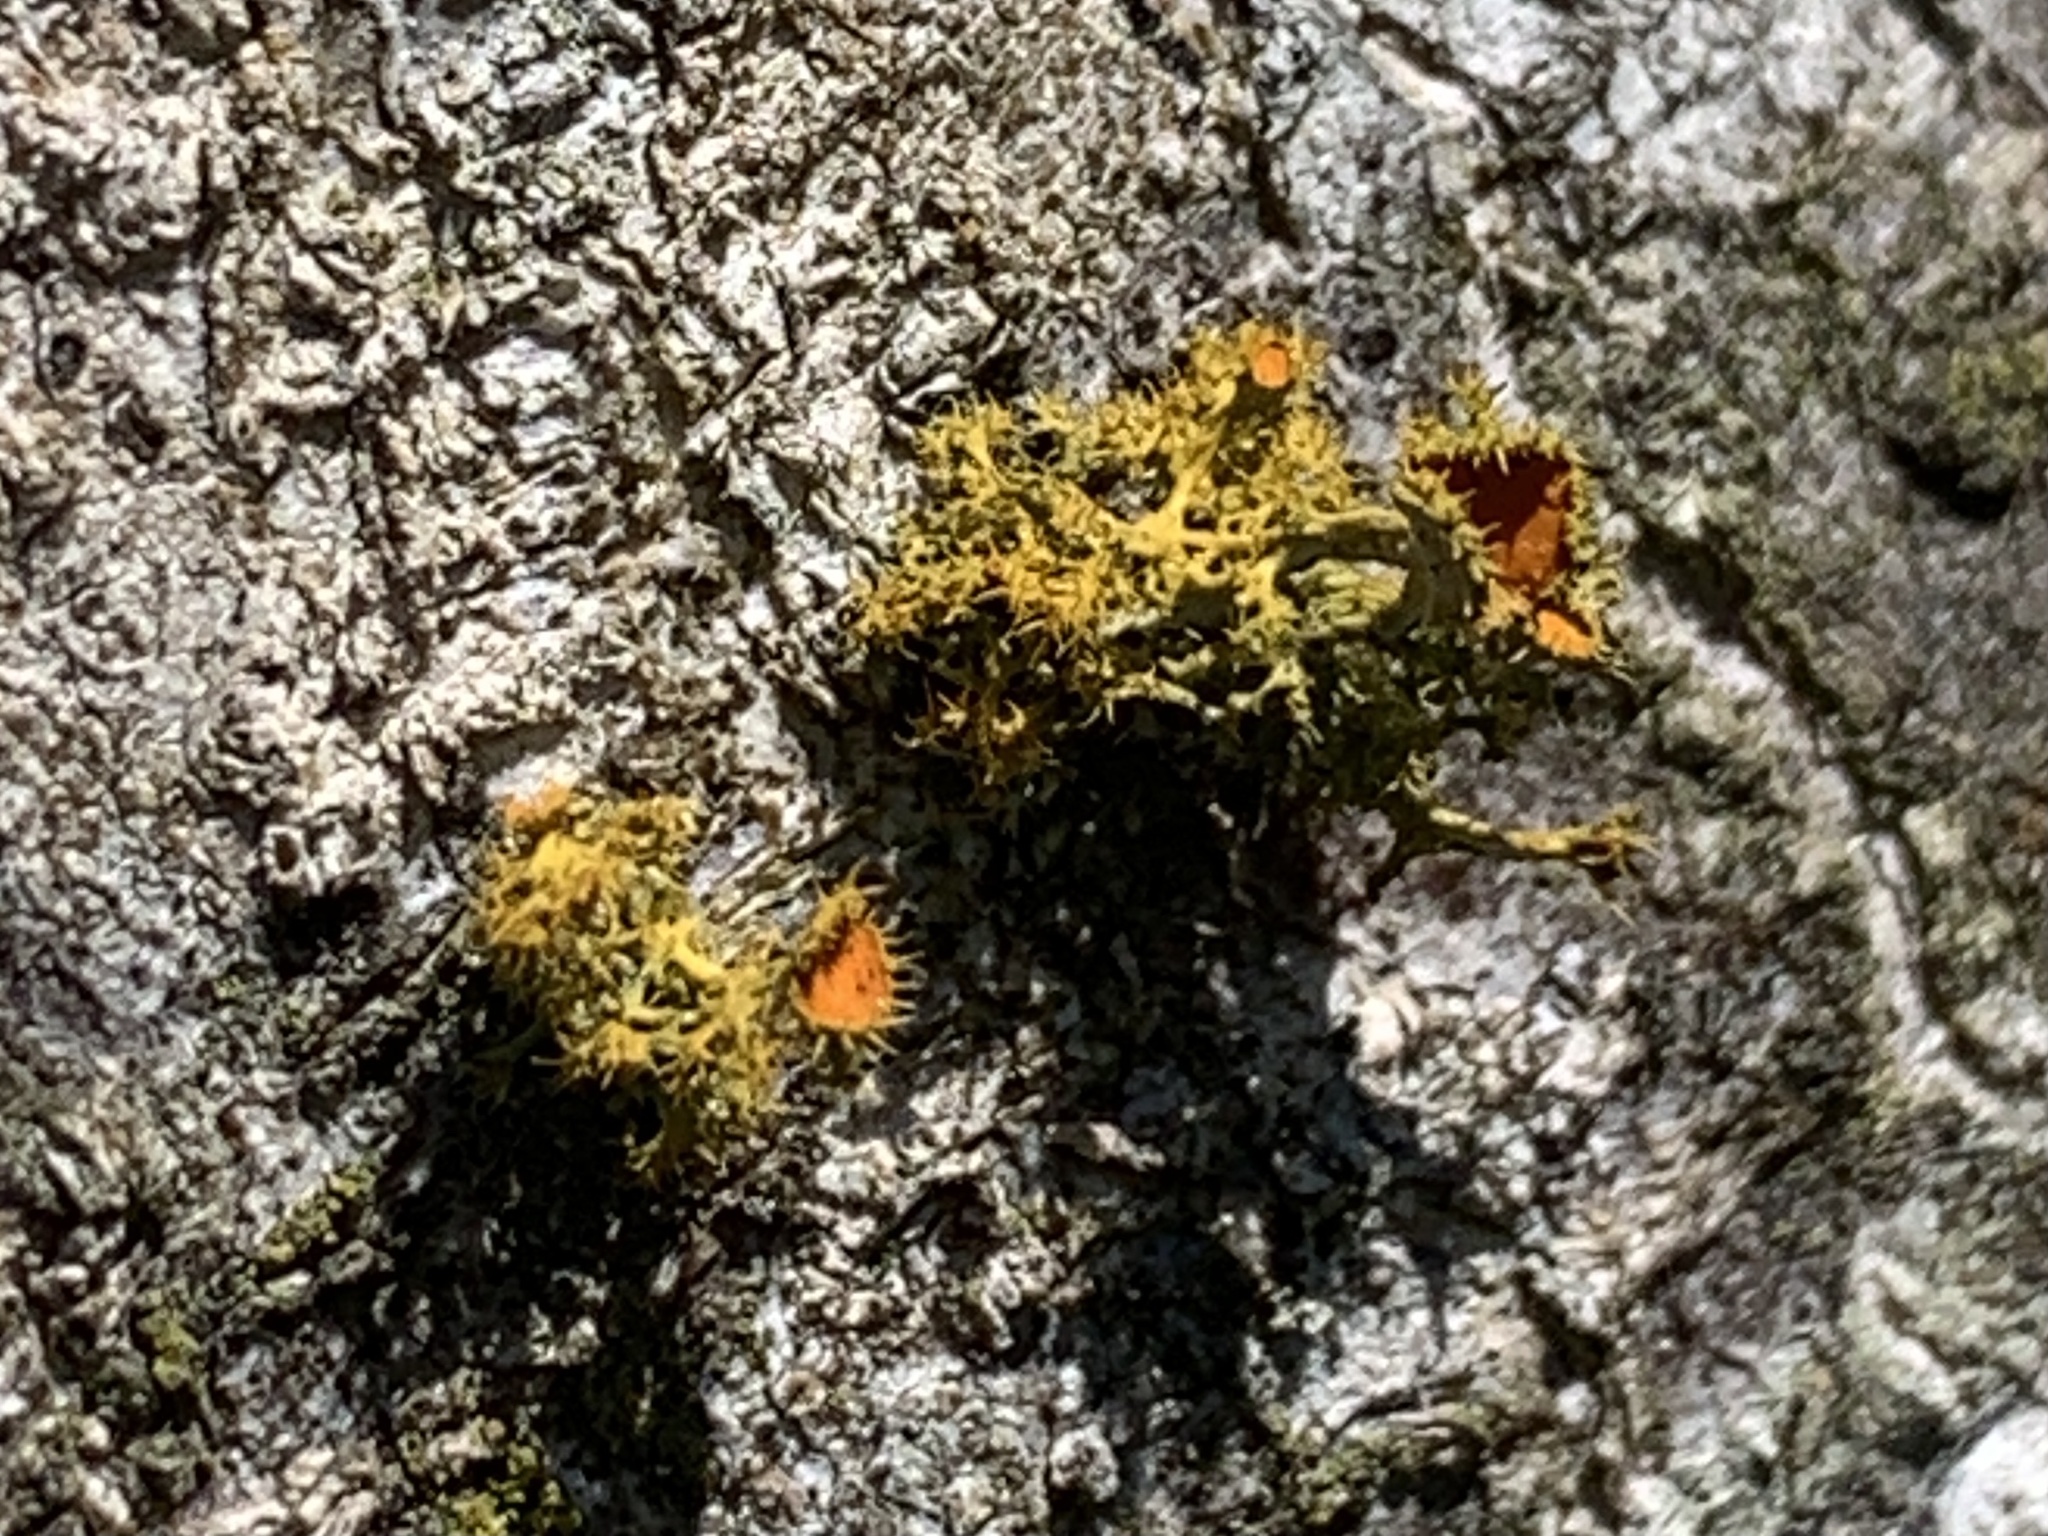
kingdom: Fungi
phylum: Ascomycota
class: Lecanoromycetes
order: Teloschistales
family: Teloschistaceae
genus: Niorma
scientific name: Niorma chrysophthalma
